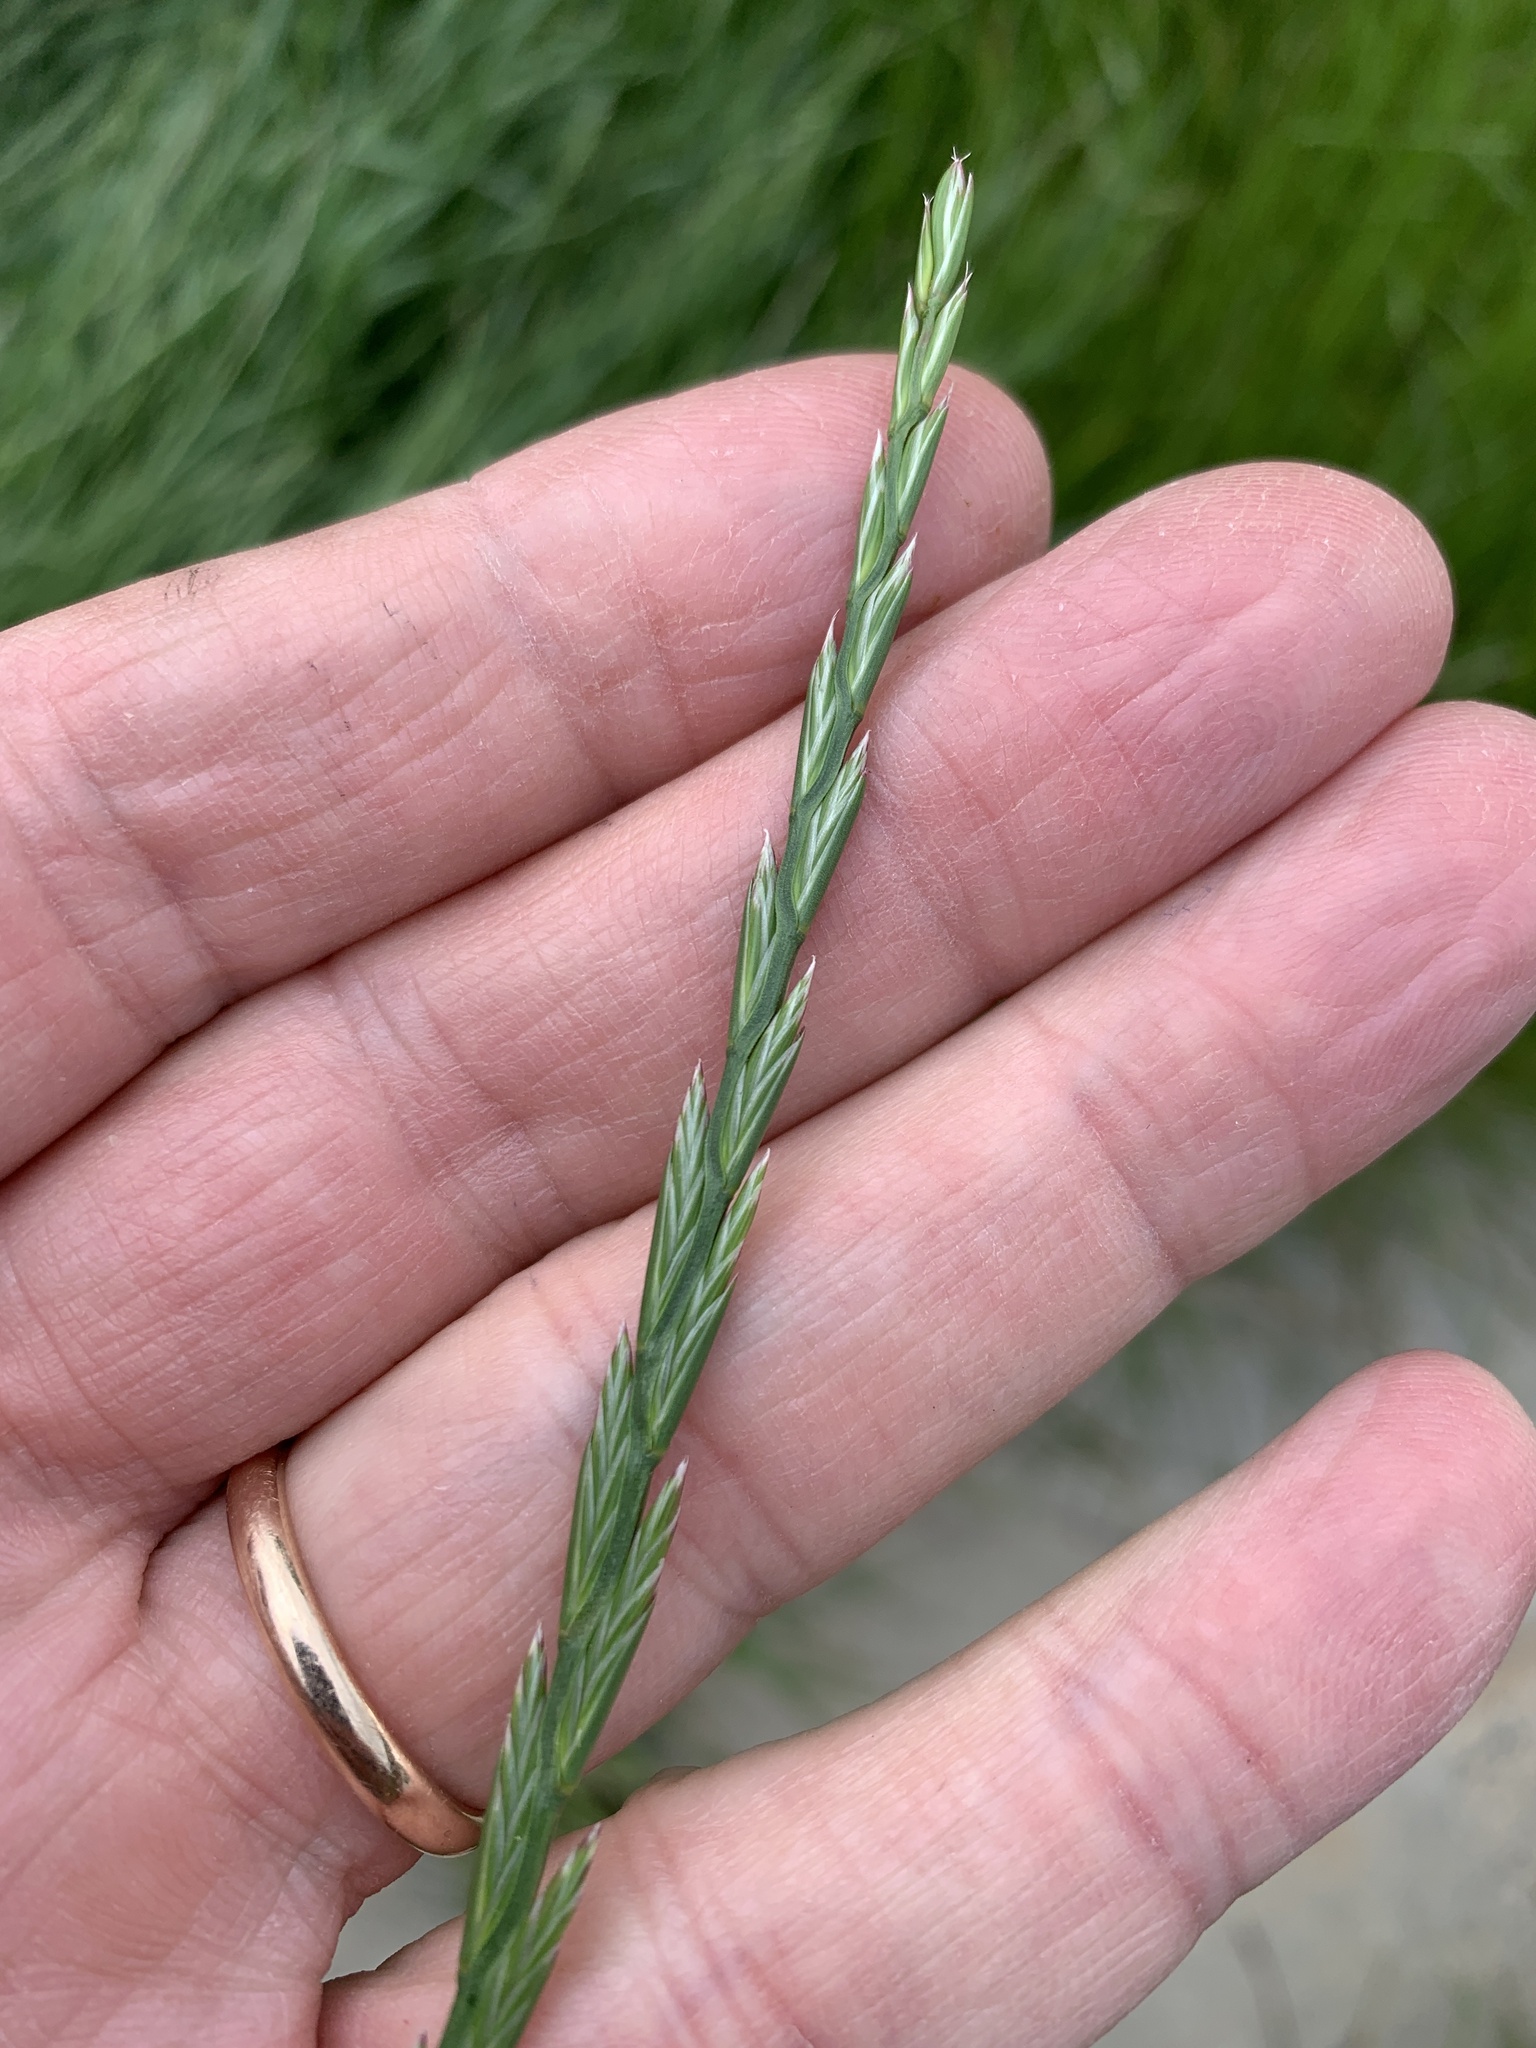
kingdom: Plantae
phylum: Tracheophyta
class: Liliopsida
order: Poales
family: Poaceae
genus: Lolium
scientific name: Lolium perenne
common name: Perennial ryegrass
